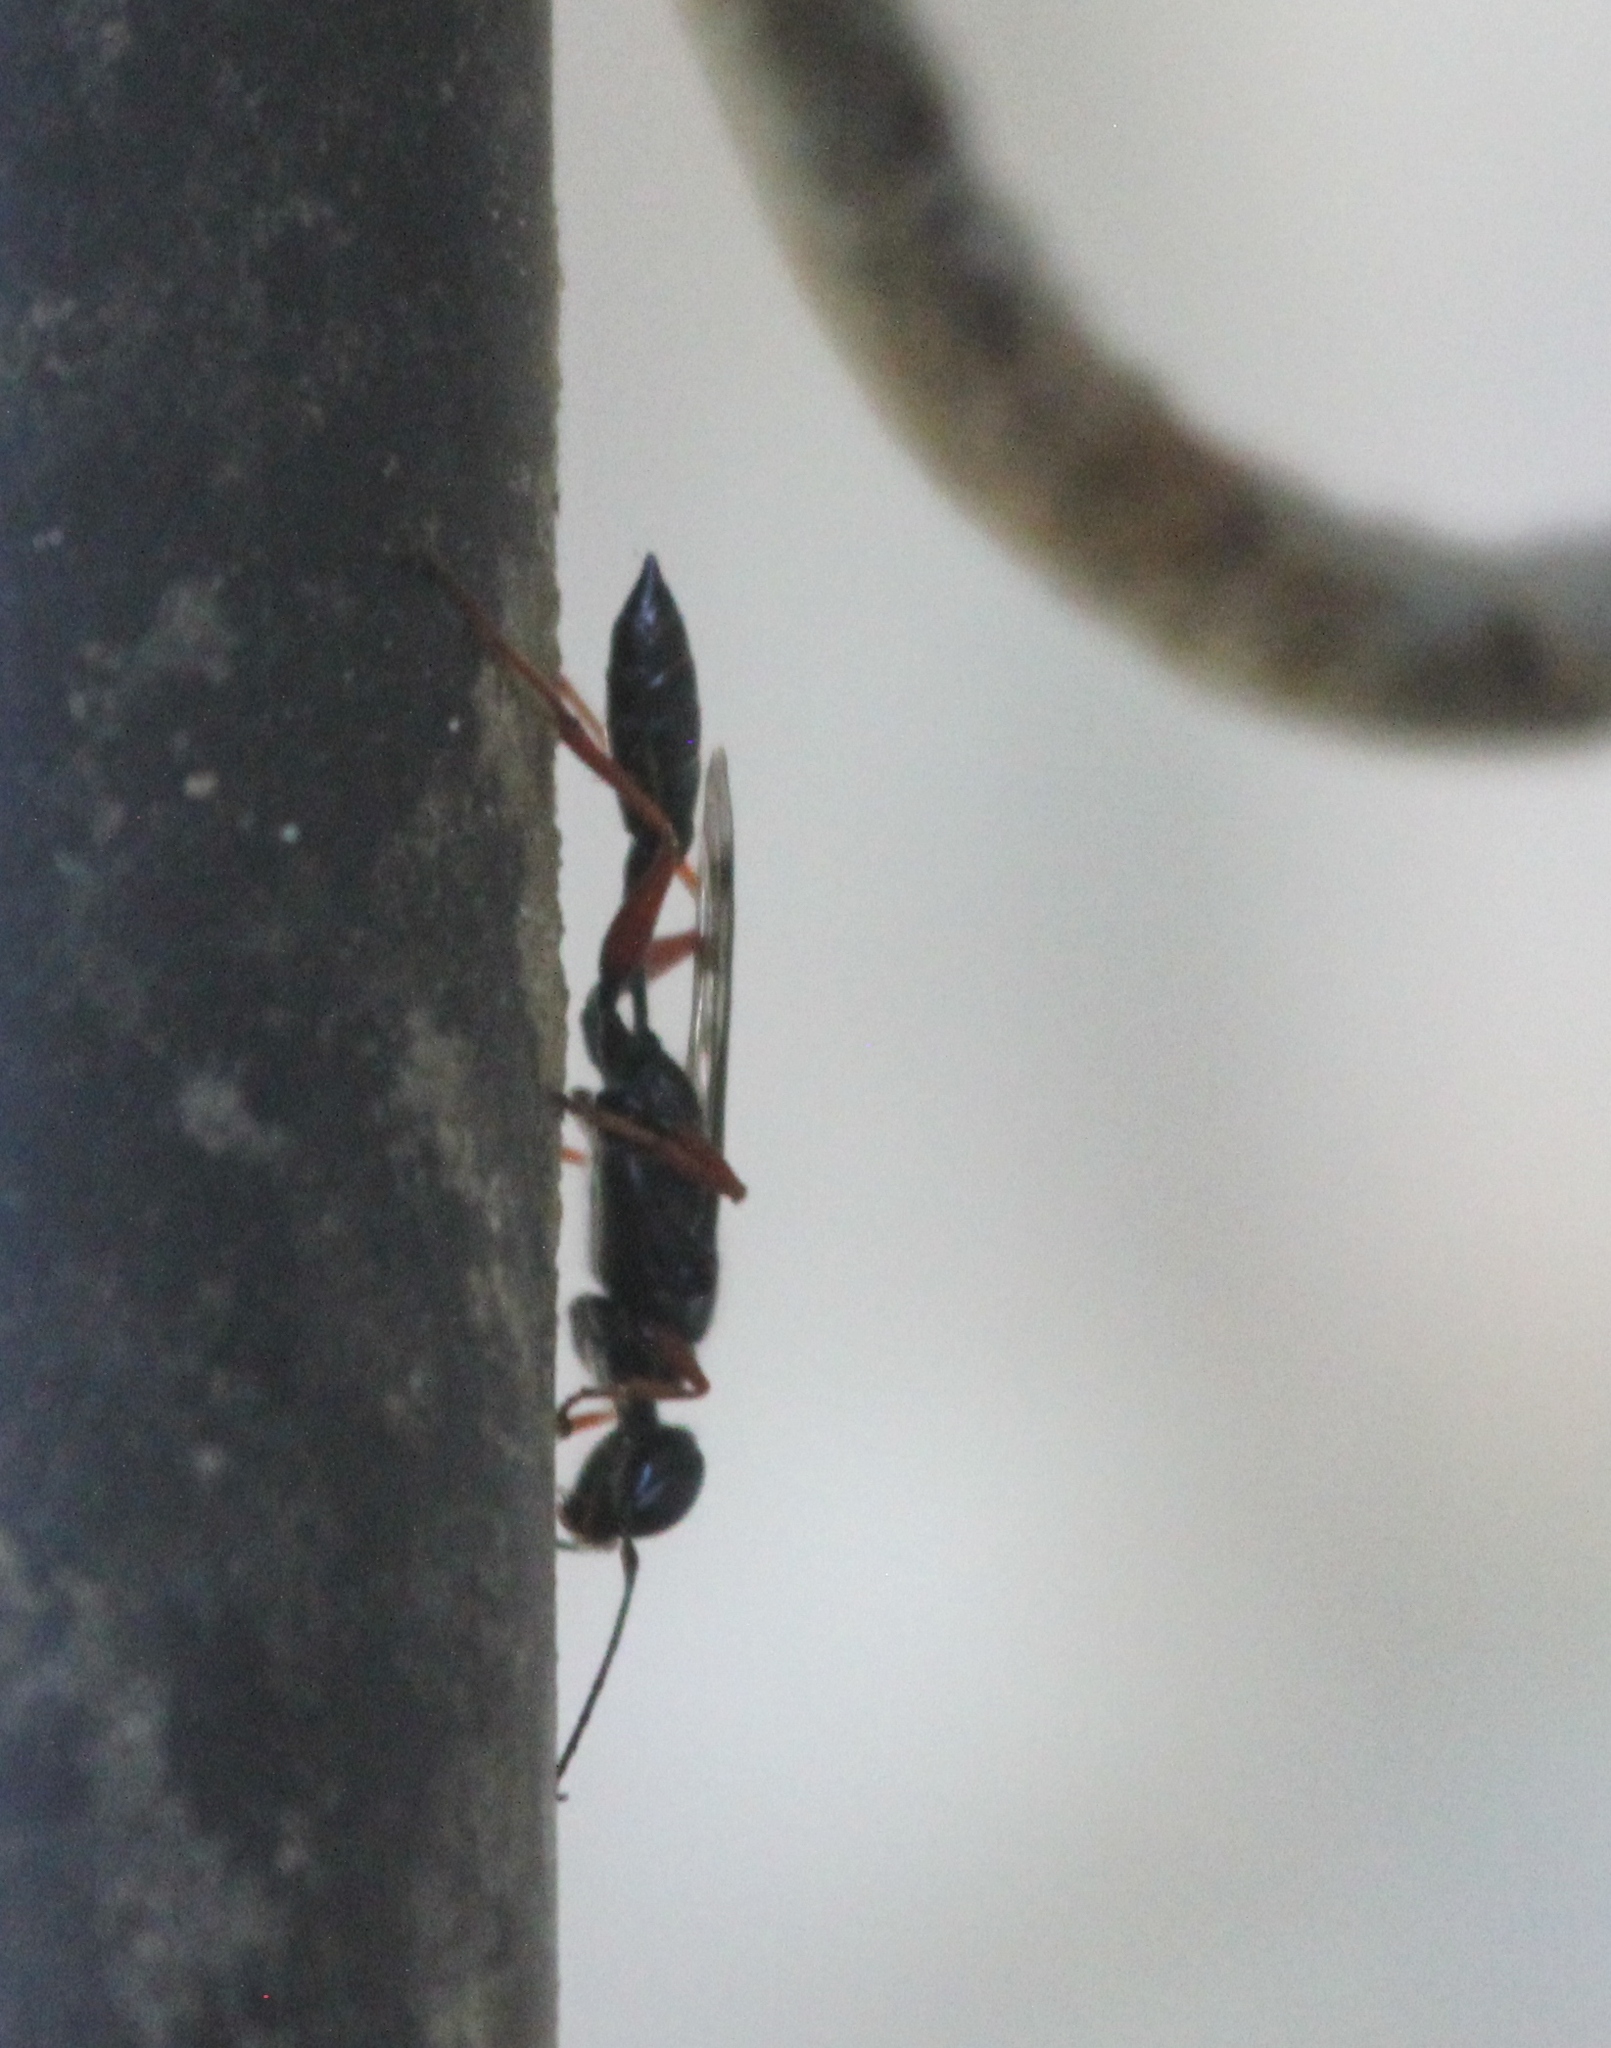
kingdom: Animalia
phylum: Arthropoda
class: Insecta
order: Hymenoptera
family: Sphecidae
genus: Podium
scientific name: Podium rufipes
